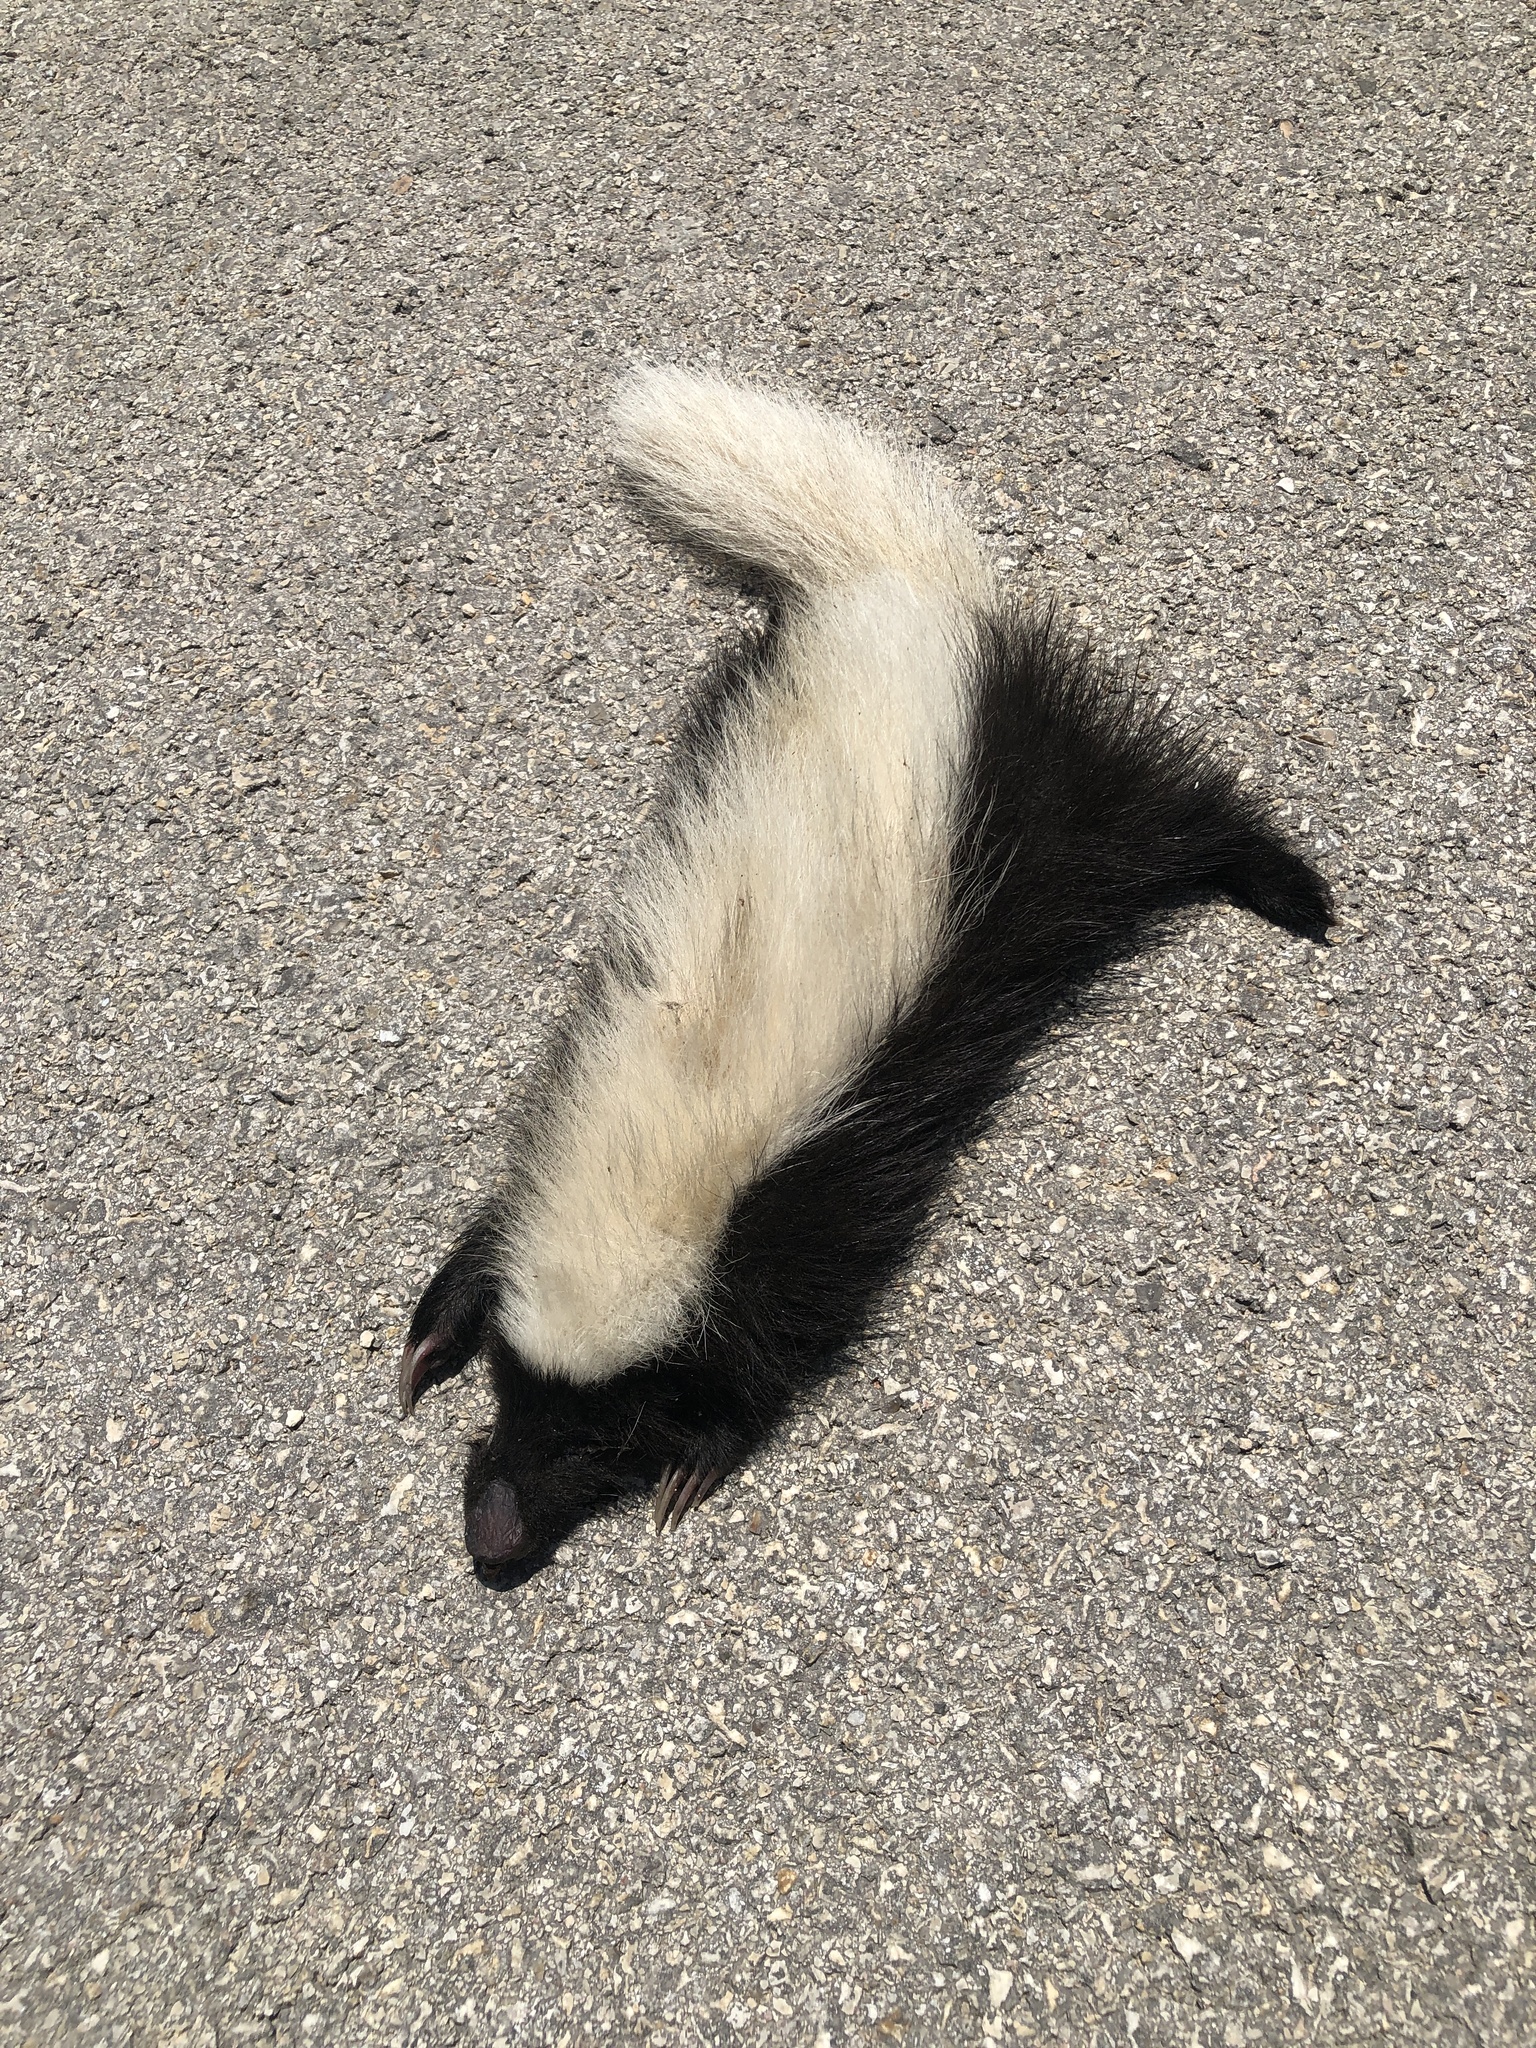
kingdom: Animalia
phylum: Chordata
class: Mammalia
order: Carnivora
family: Mephitidae
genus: Conepatus
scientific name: Conepatus leuconotus
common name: Eastern hog-nosed skunk
